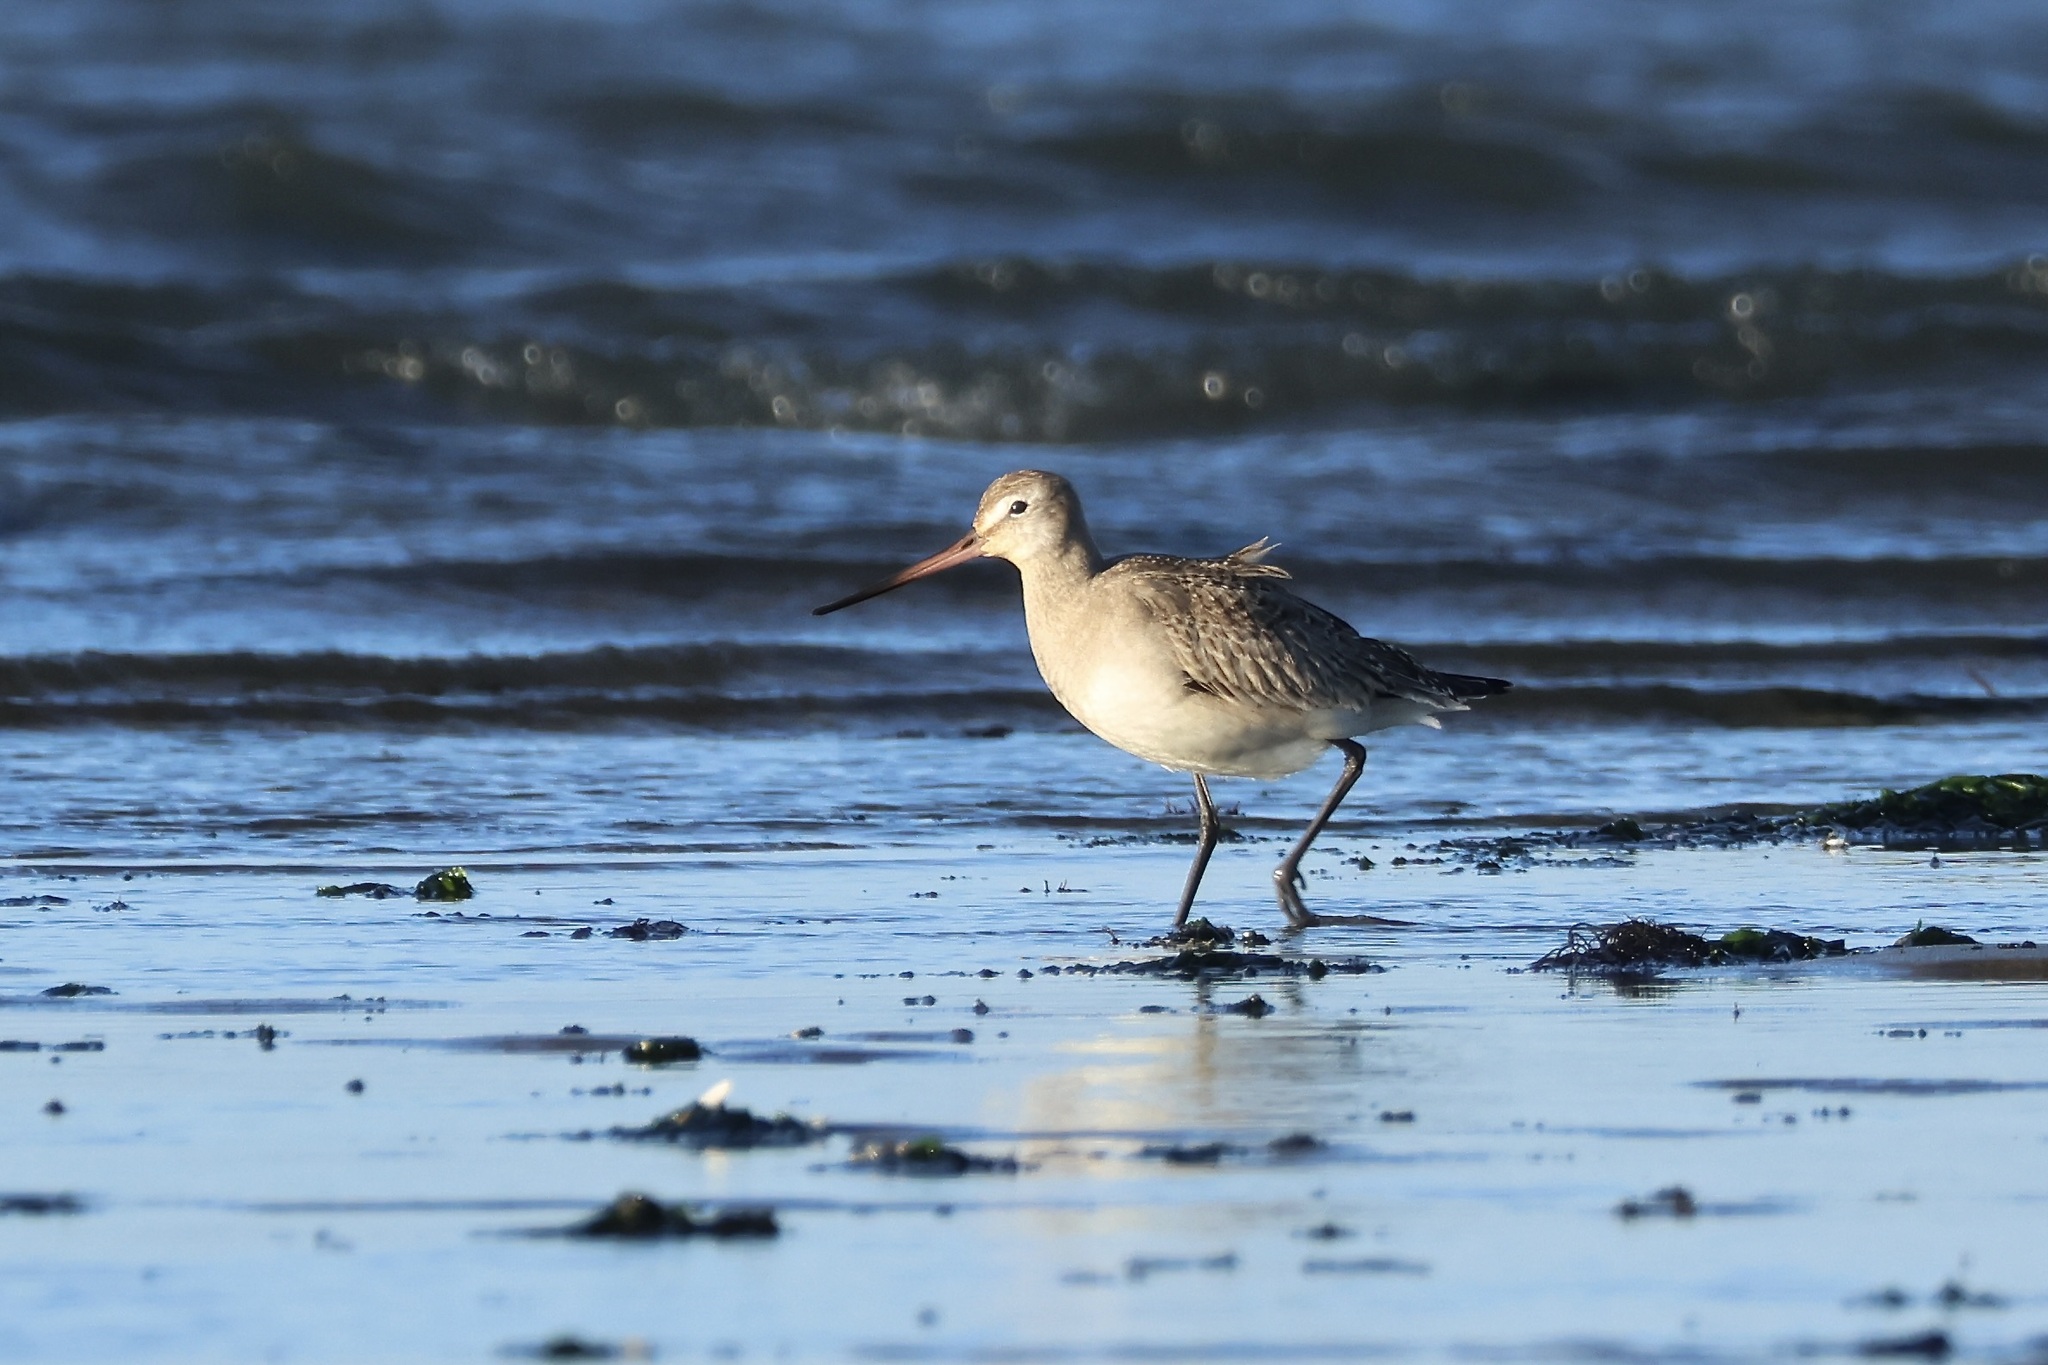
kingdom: Animalia
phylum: Chordata
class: Aves
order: Charadriiformes
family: Scolopacidae
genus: Limosa
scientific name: Limosa haemastica
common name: Hudsonian godwit
